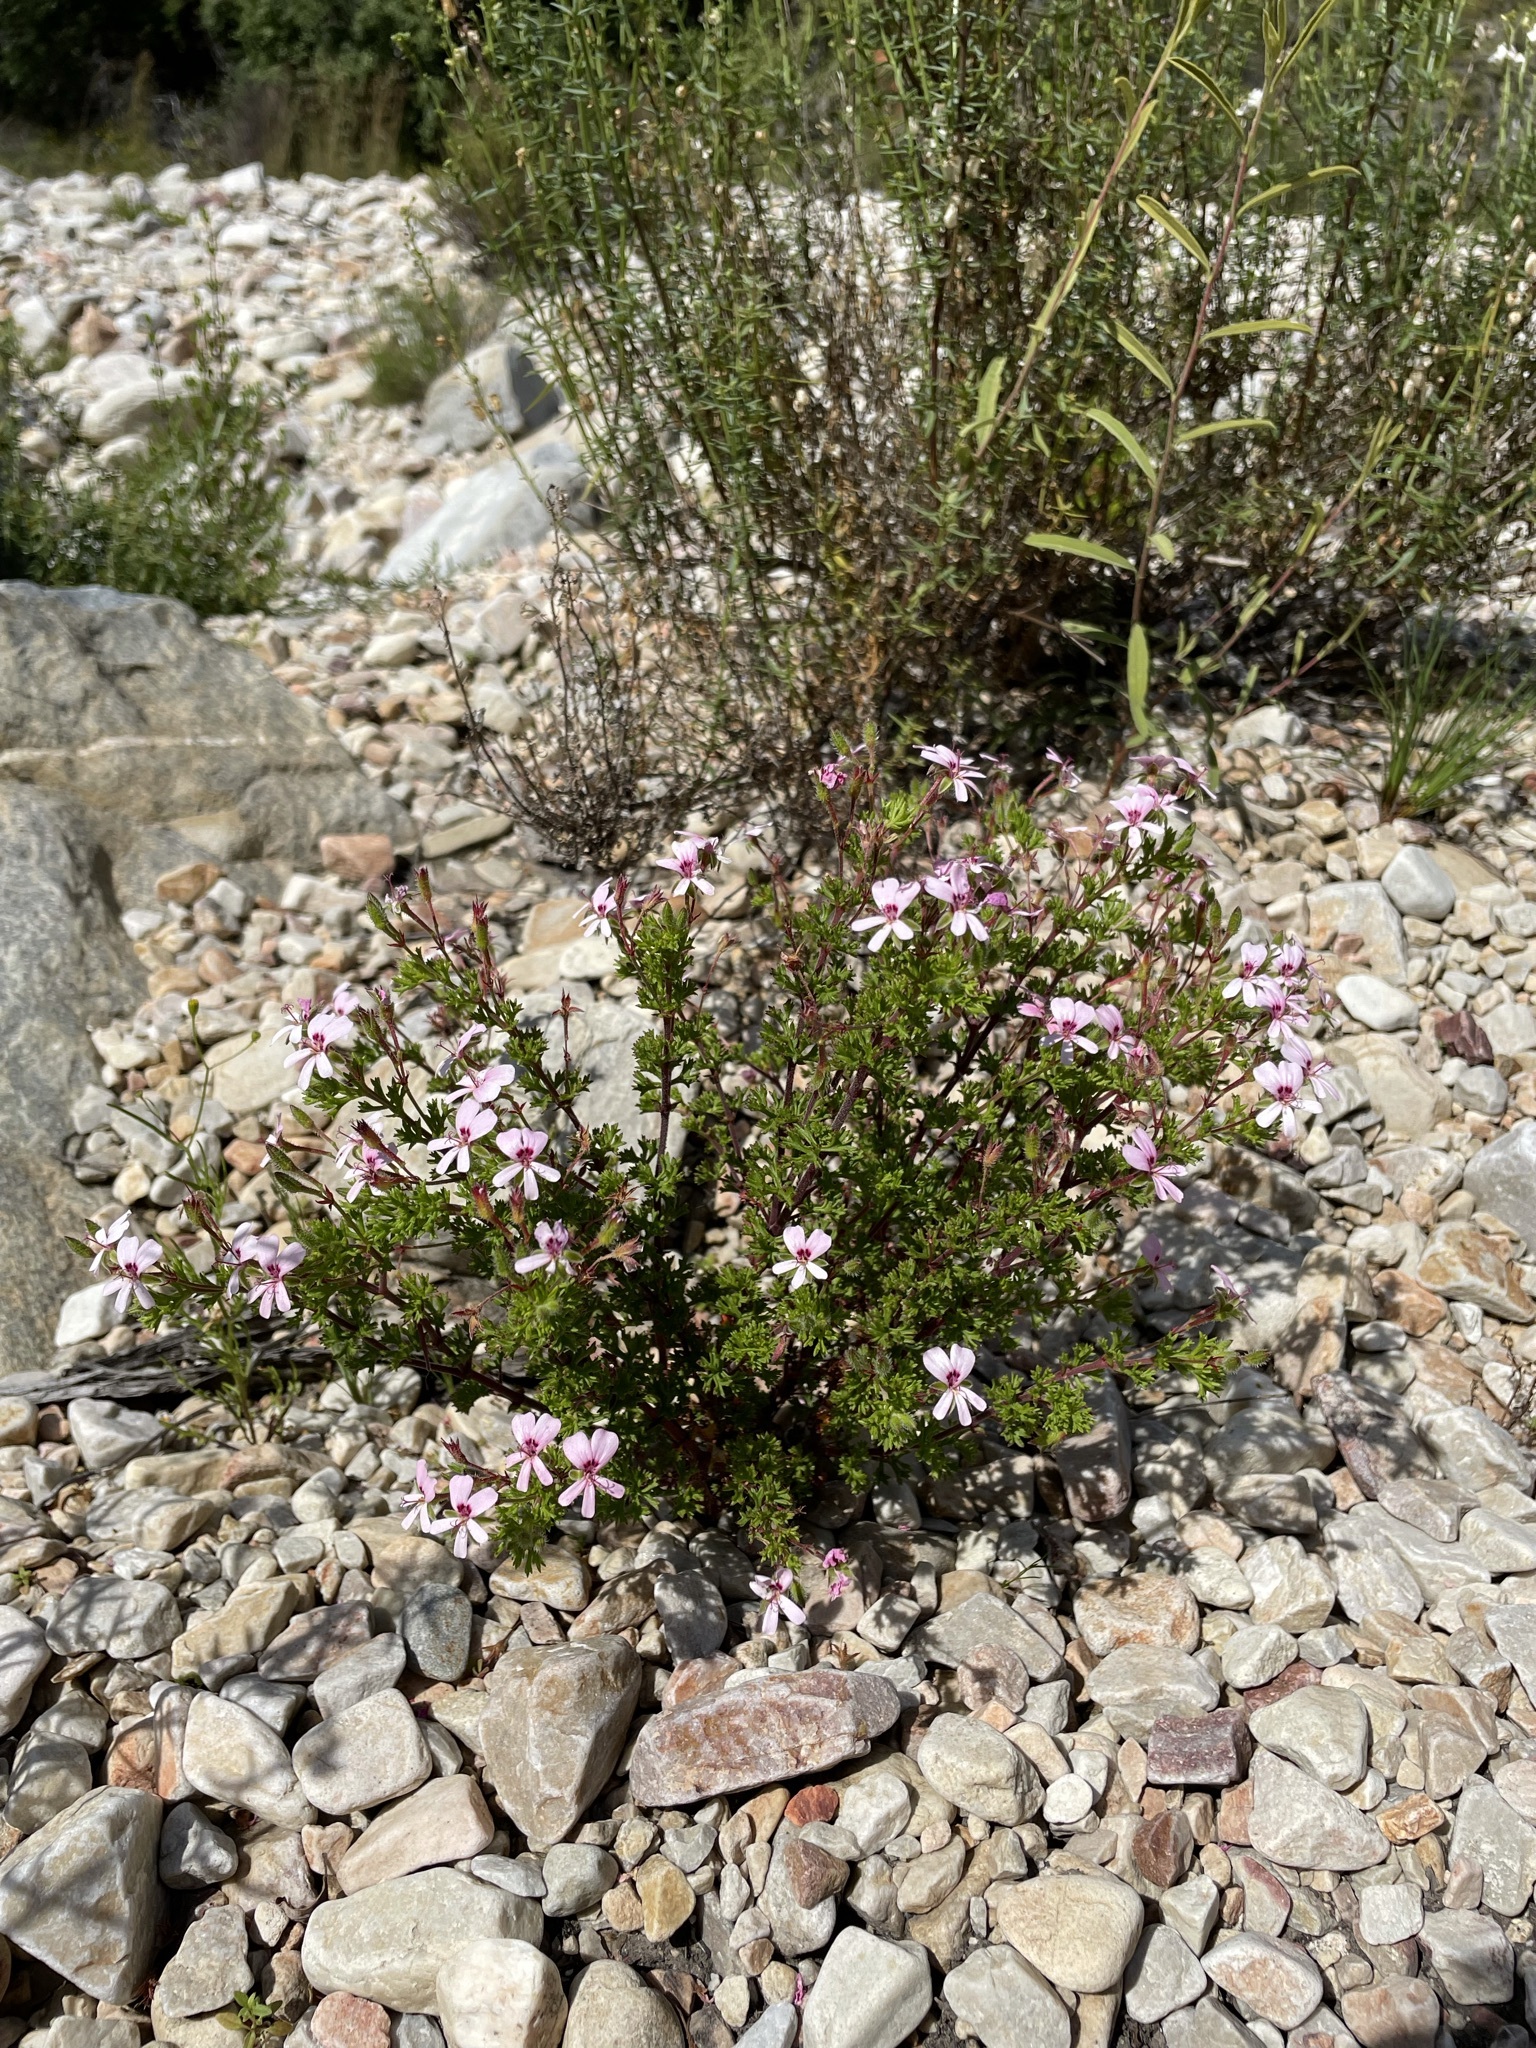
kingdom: Plantae
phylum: Tracheophyta
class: Magnoliopsida
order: Geraniales
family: Geraniaceae
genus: Pelargonium
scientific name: Pelargonium fruticosum
